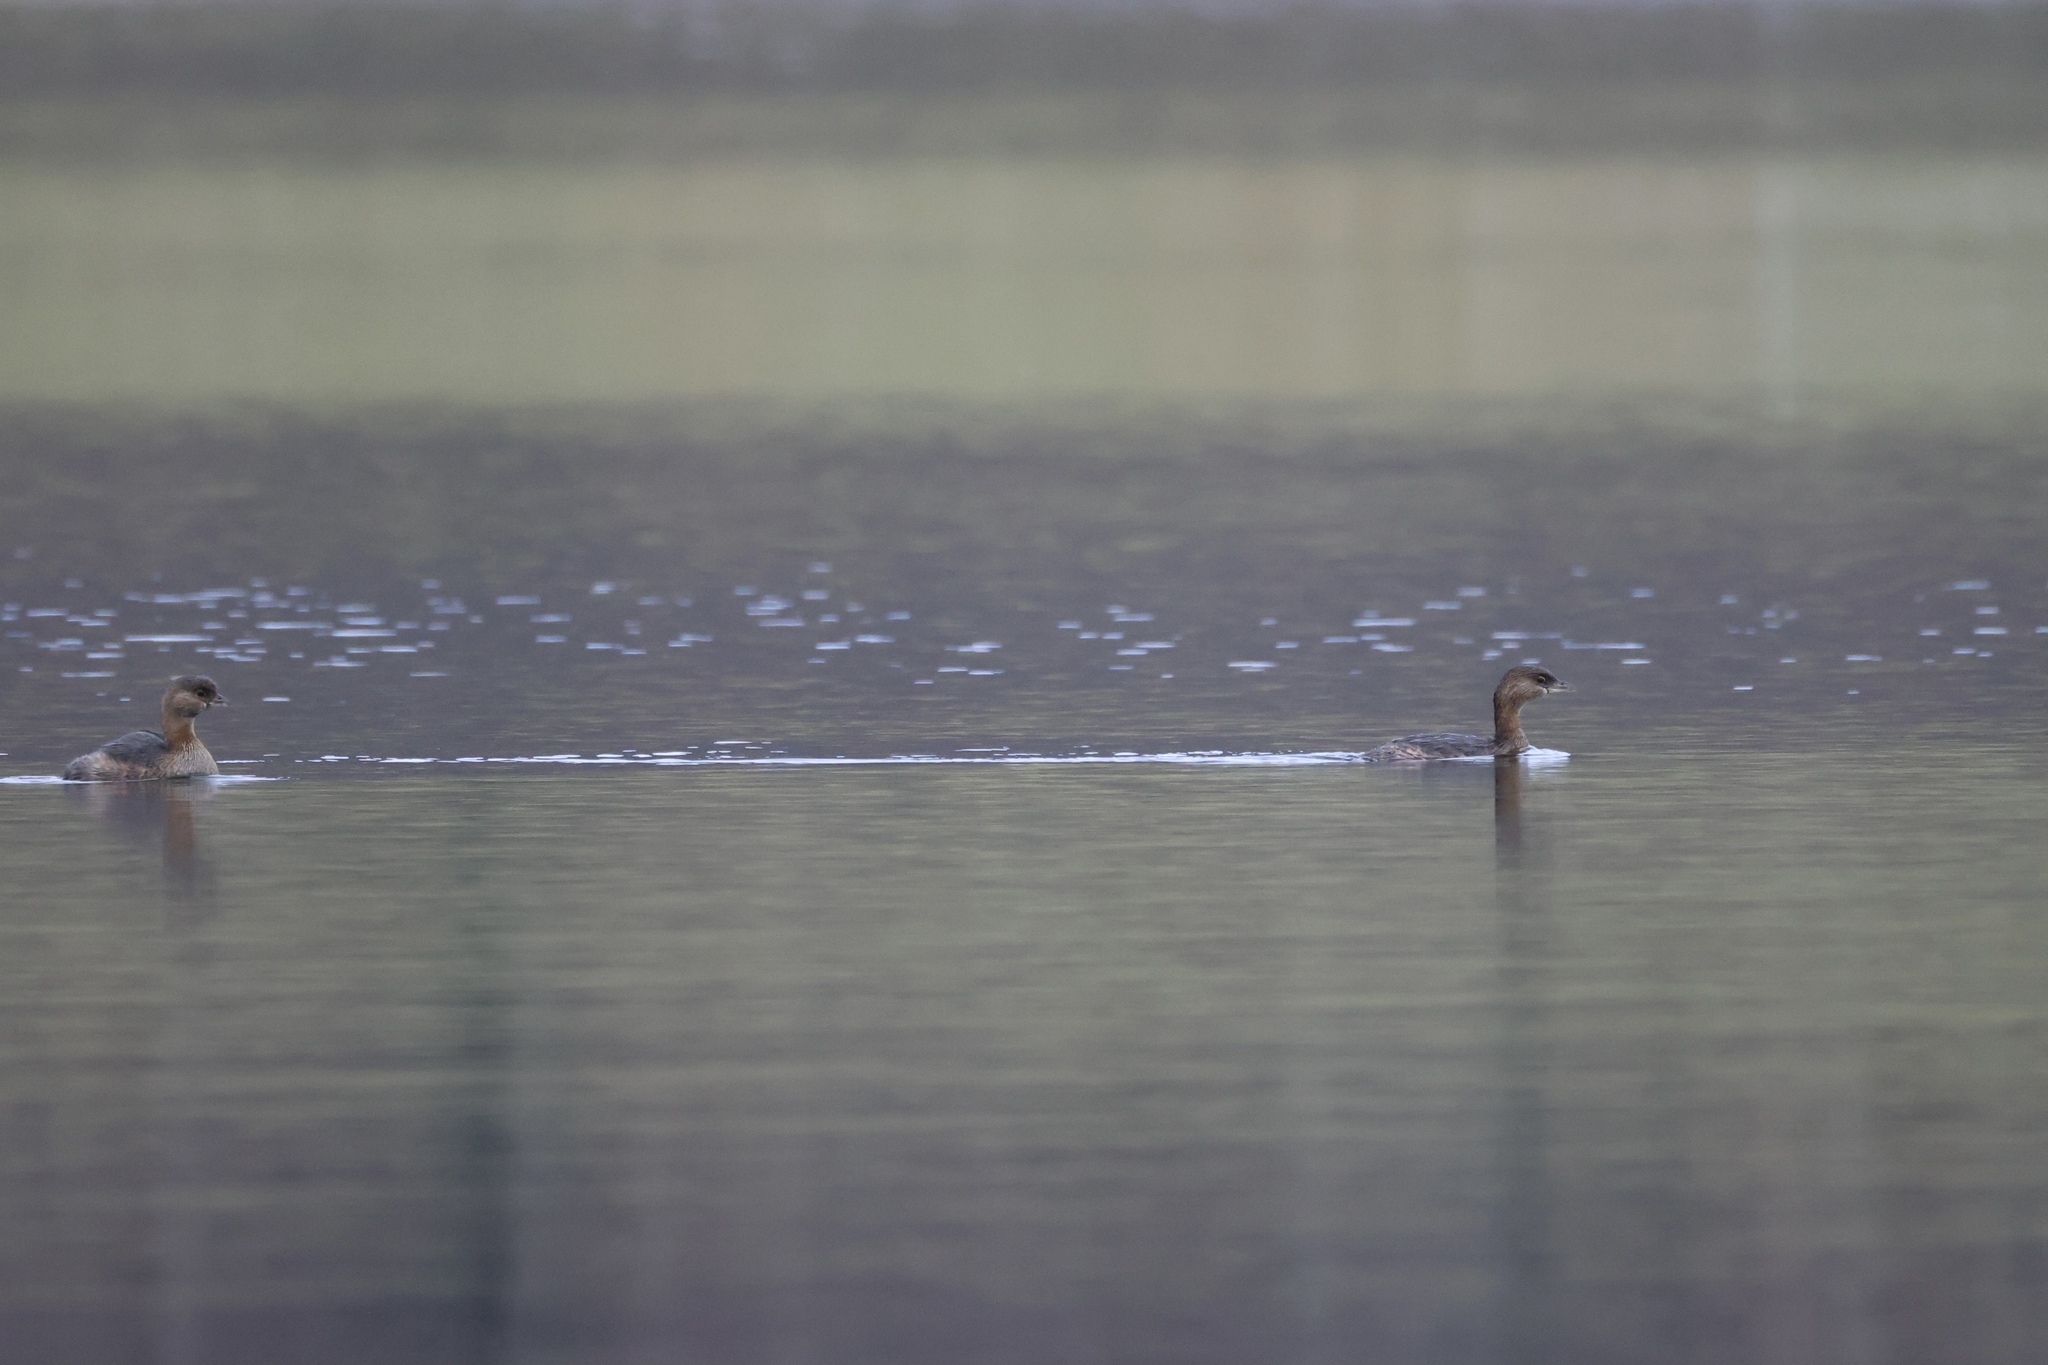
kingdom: Animalia
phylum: Chordata
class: Aves
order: Podicipediformes
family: Podicipedidae
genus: Podilymbus
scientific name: Podilymbus podiceps
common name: Pied-billed grebe
